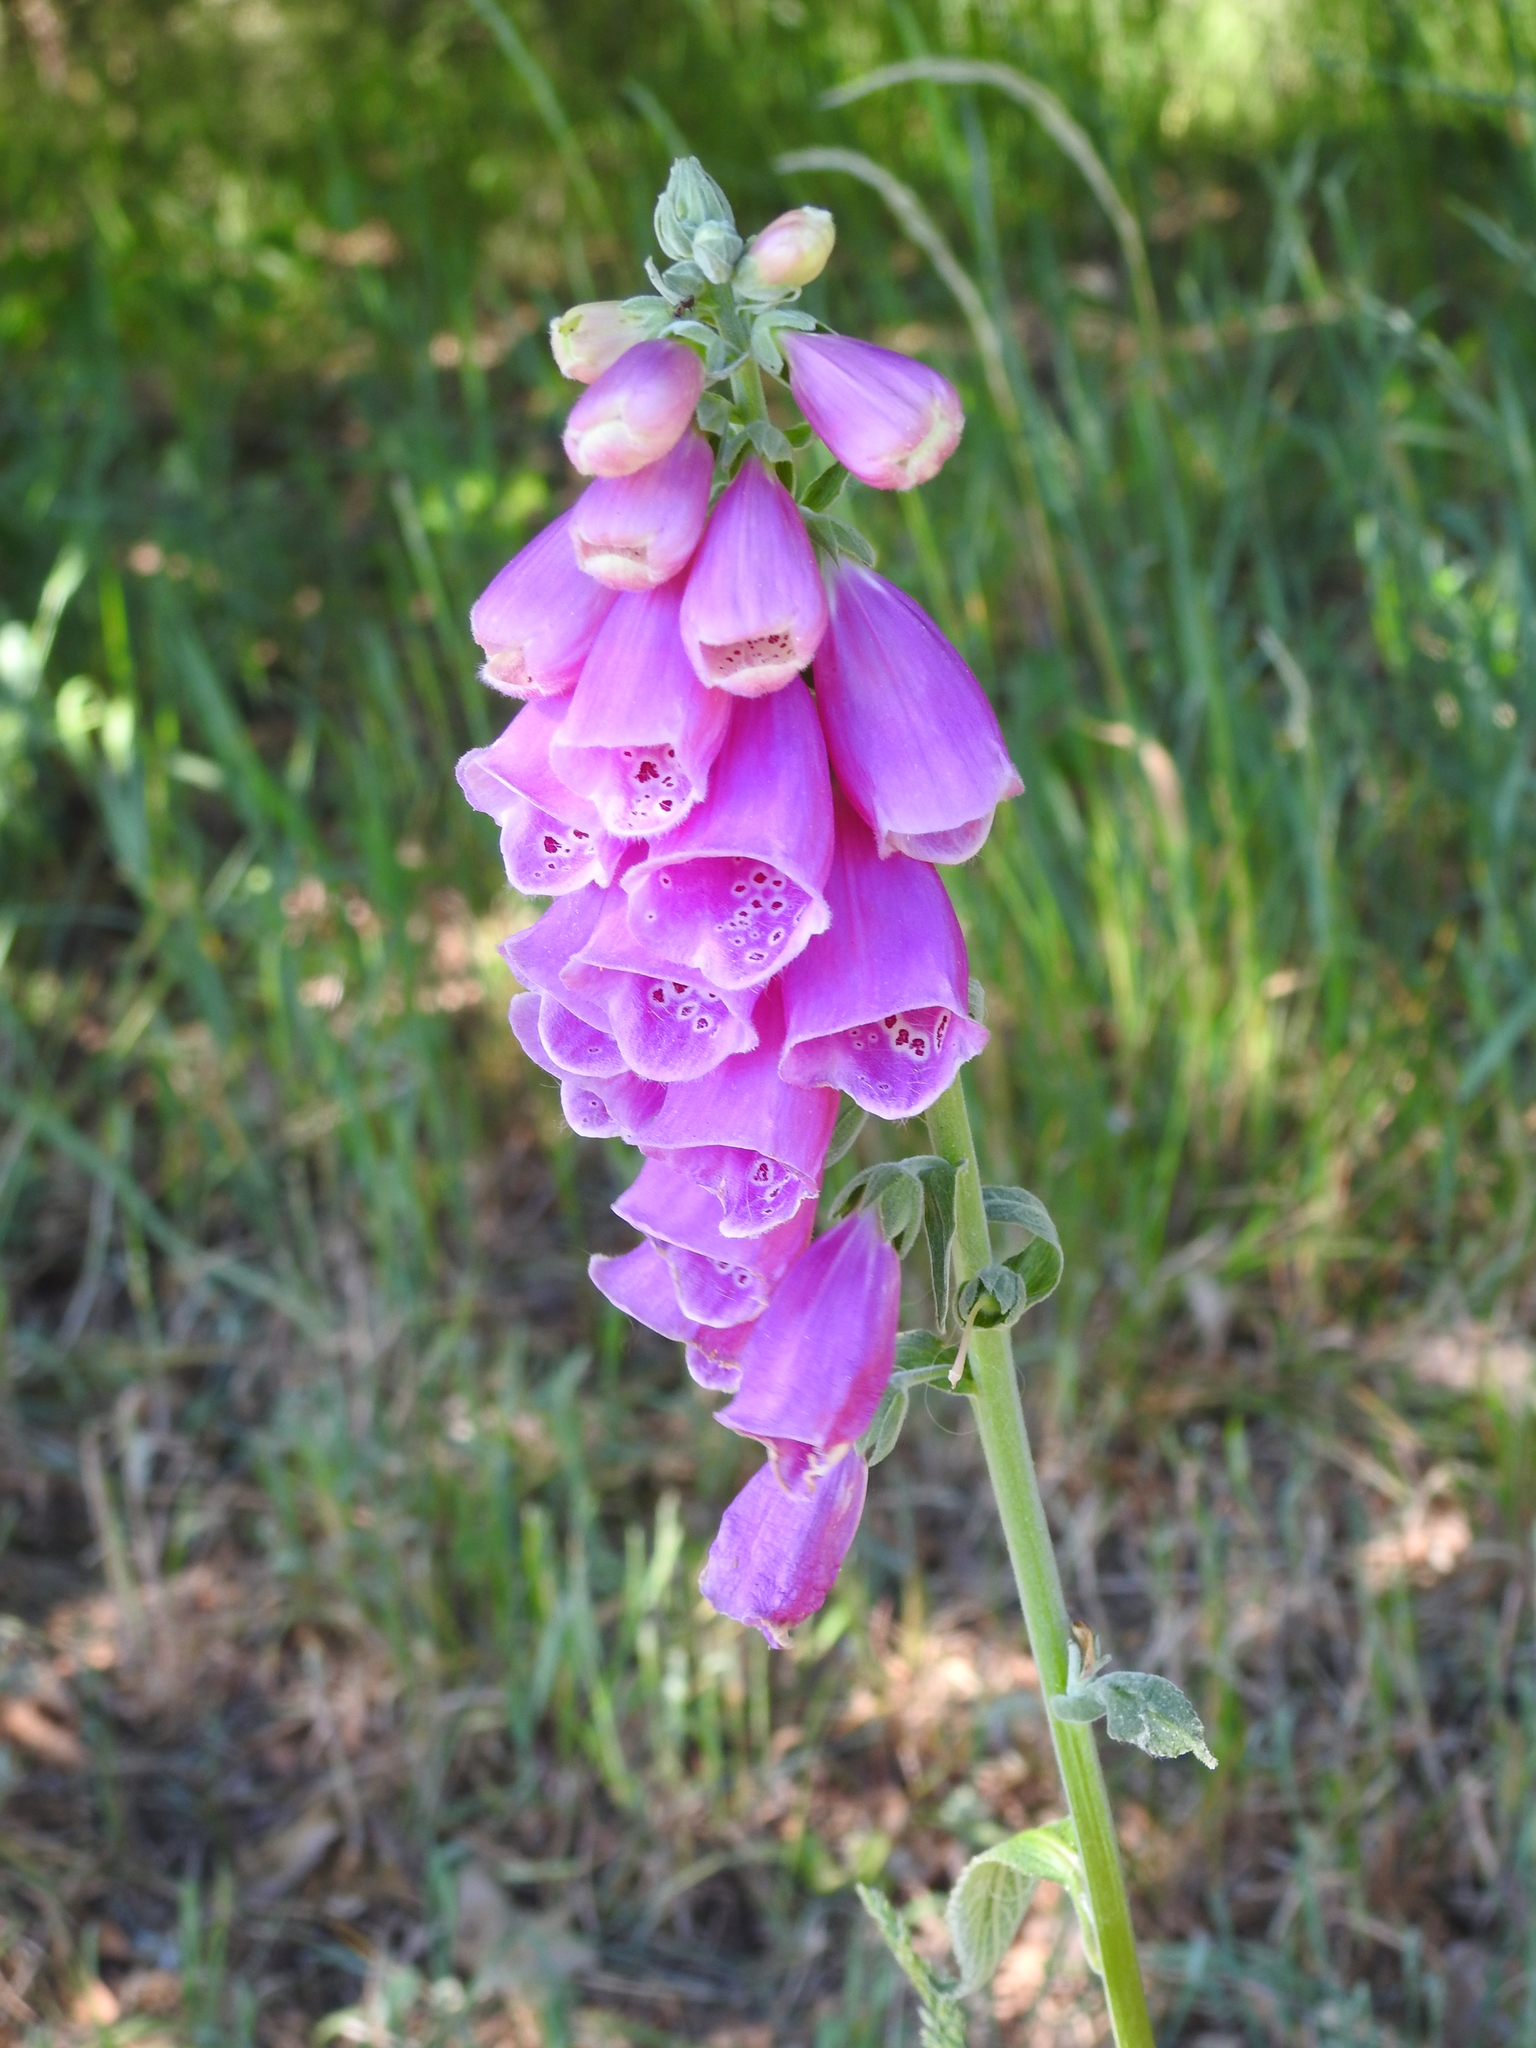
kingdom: Plantae
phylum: Tracheophyta
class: Magnoliopsida
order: Lamiales
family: Plantaginaceae
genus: Digitalis
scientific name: Digitalis purpurea
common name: Foxglove
